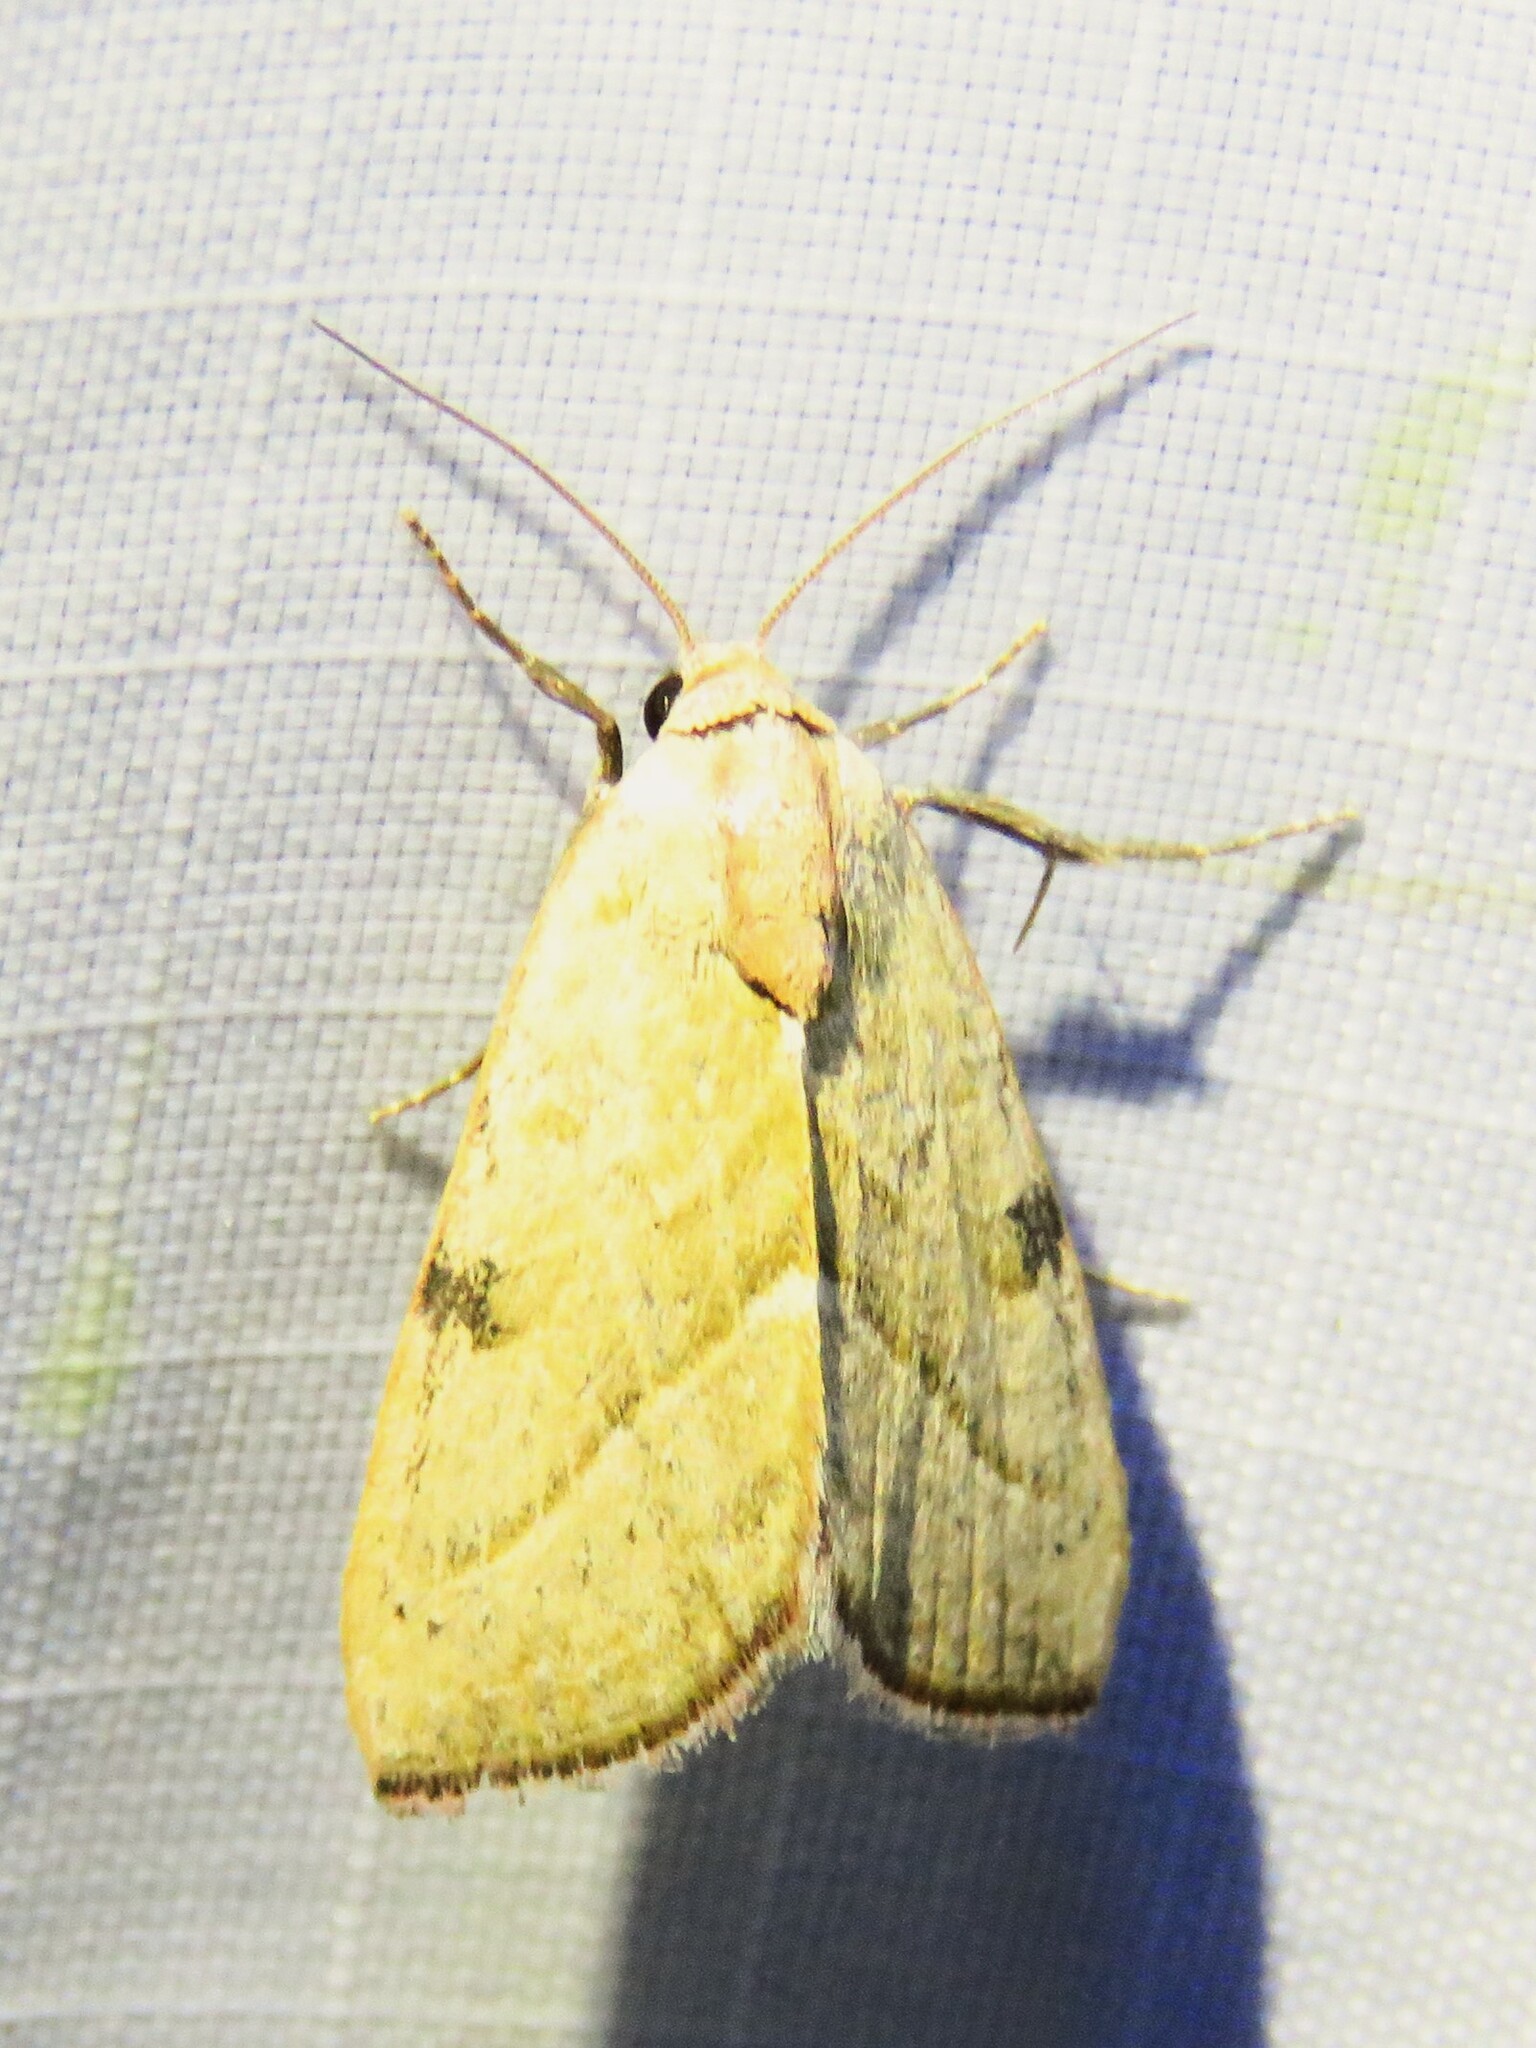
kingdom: Animalia
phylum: Arthropoda
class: Insecta
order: Lepidoptera
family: Noctuidae
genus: Galgula
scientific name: Galgula partita
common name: Wedgeling
